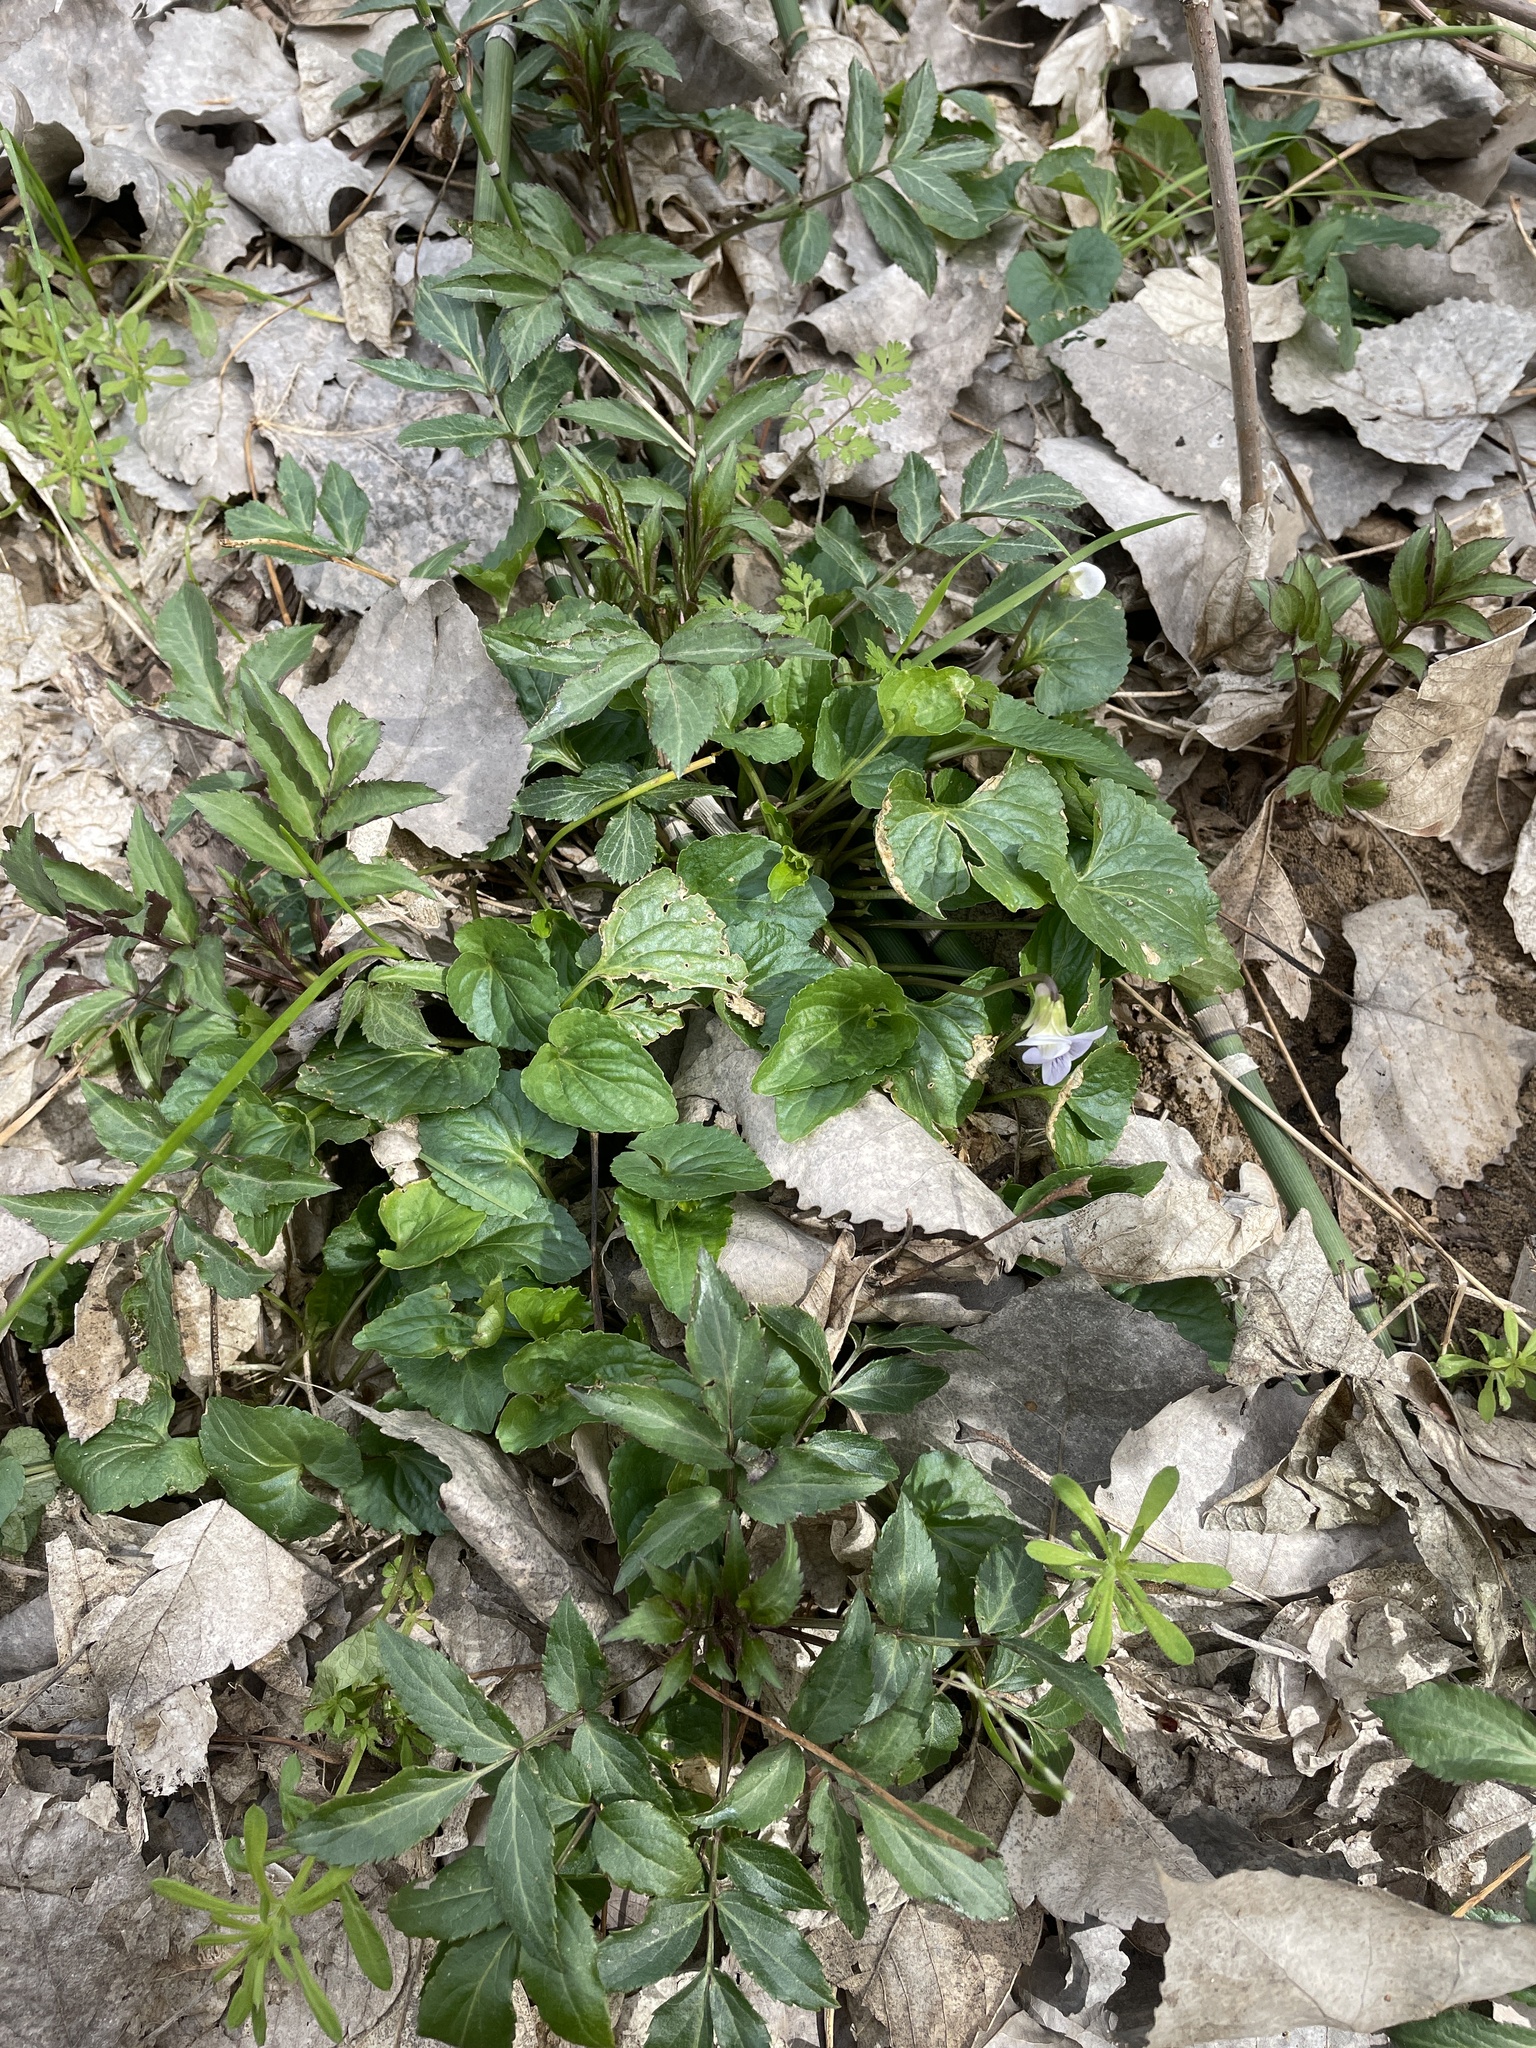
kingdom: Plantae
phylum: Tracheophyta
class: Magnoliopsida
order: Malpighiales
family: Violaceae
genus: Viola
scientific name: Viola missouriensis
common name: Missouri violet
